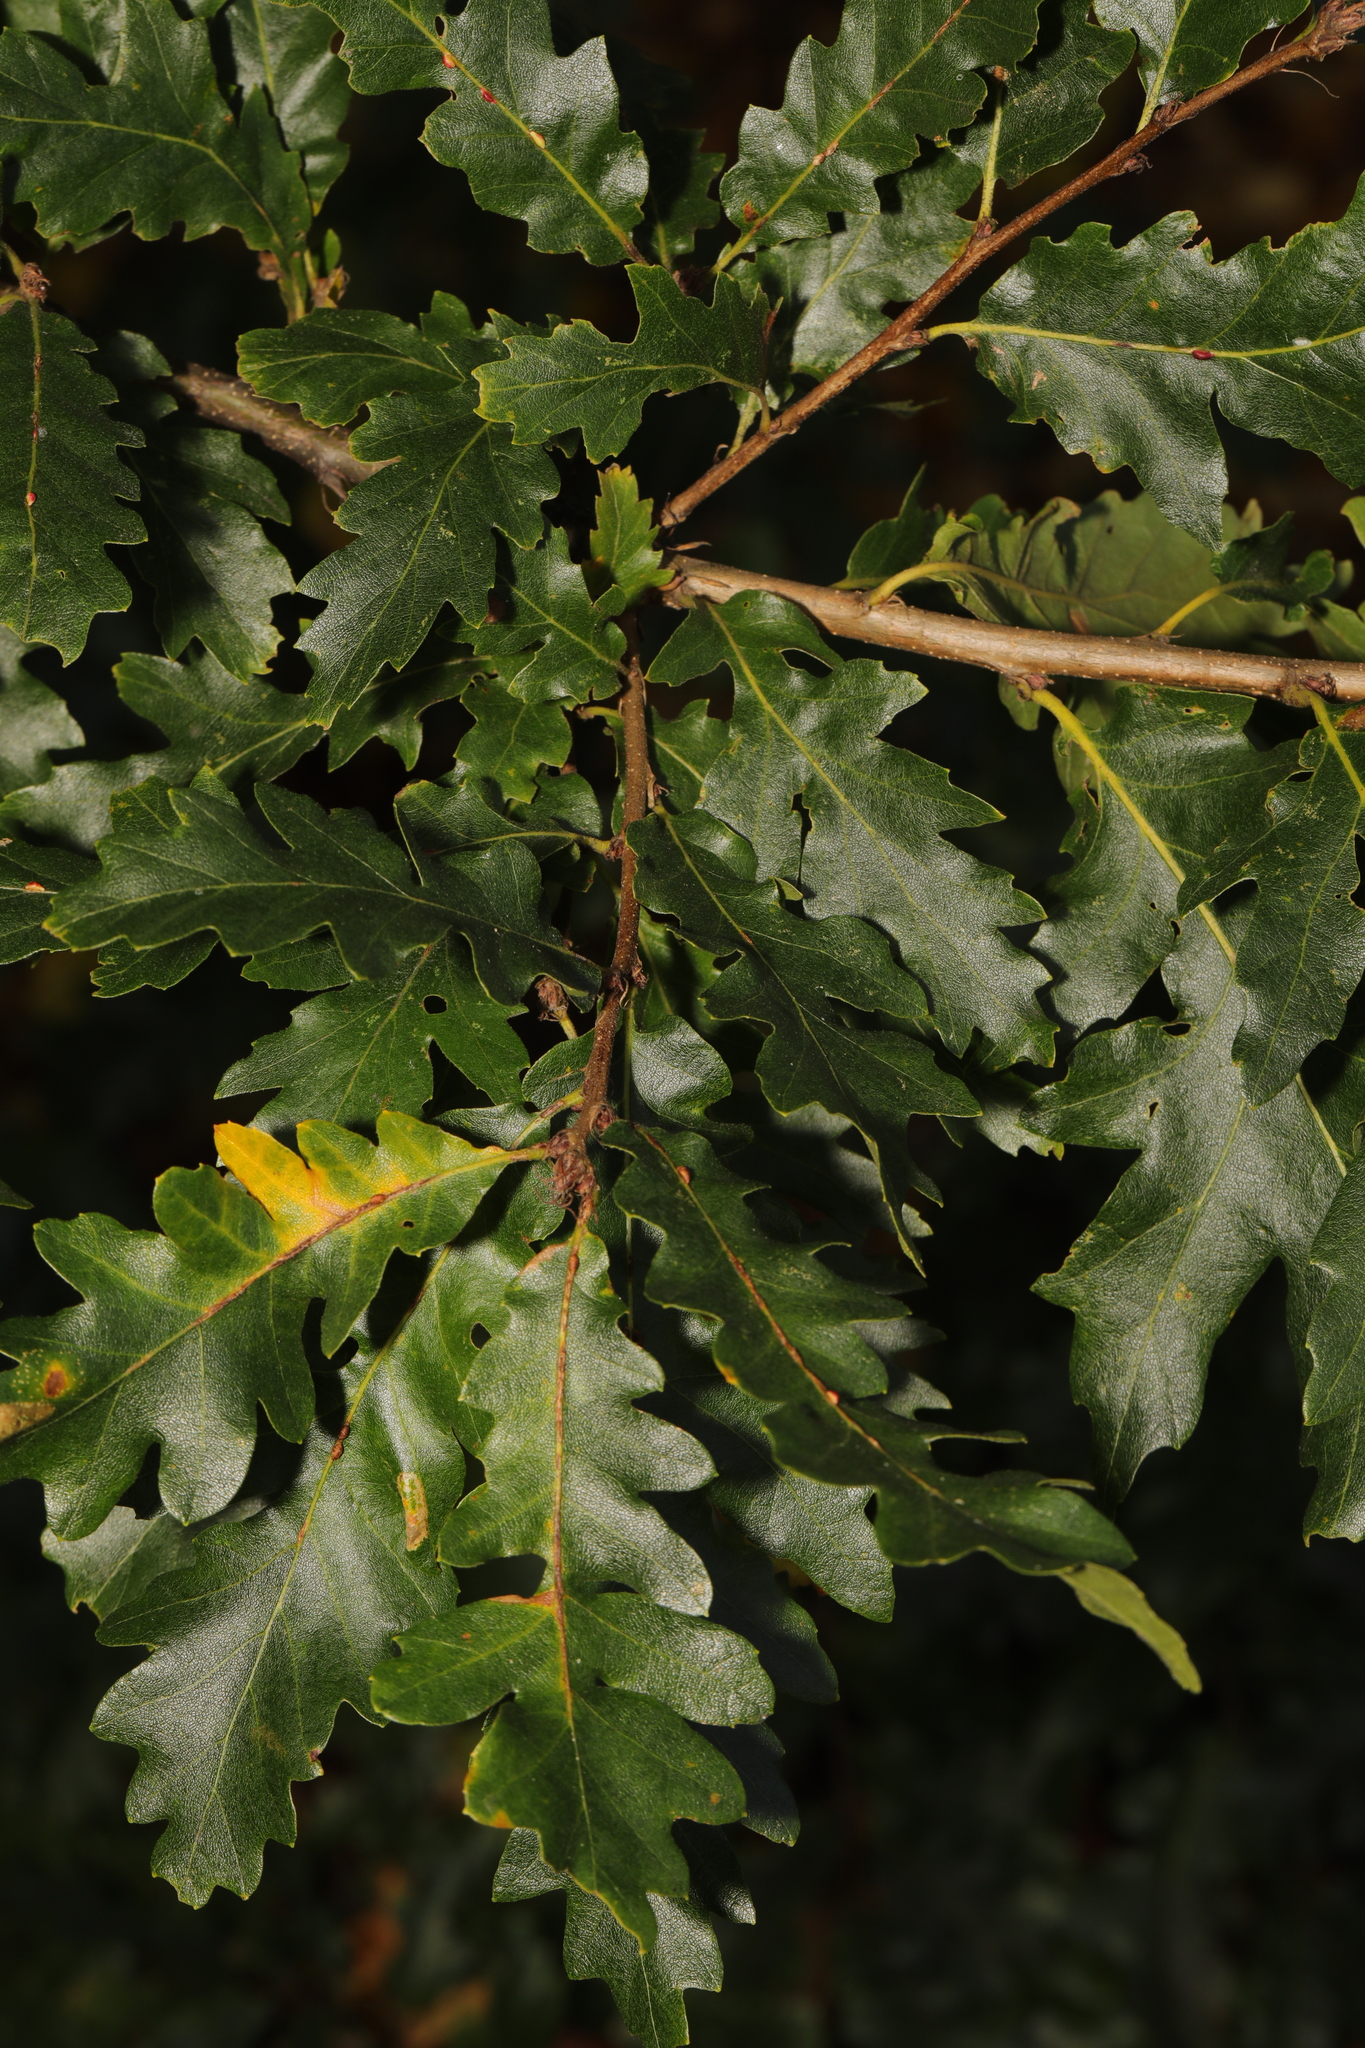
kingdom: Plantae
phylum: Tracheophyta
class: Magnoliopsida
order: Fagales
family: Fagaceae
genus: Quercus
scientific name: Quercus cerris
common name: Turkey oak
